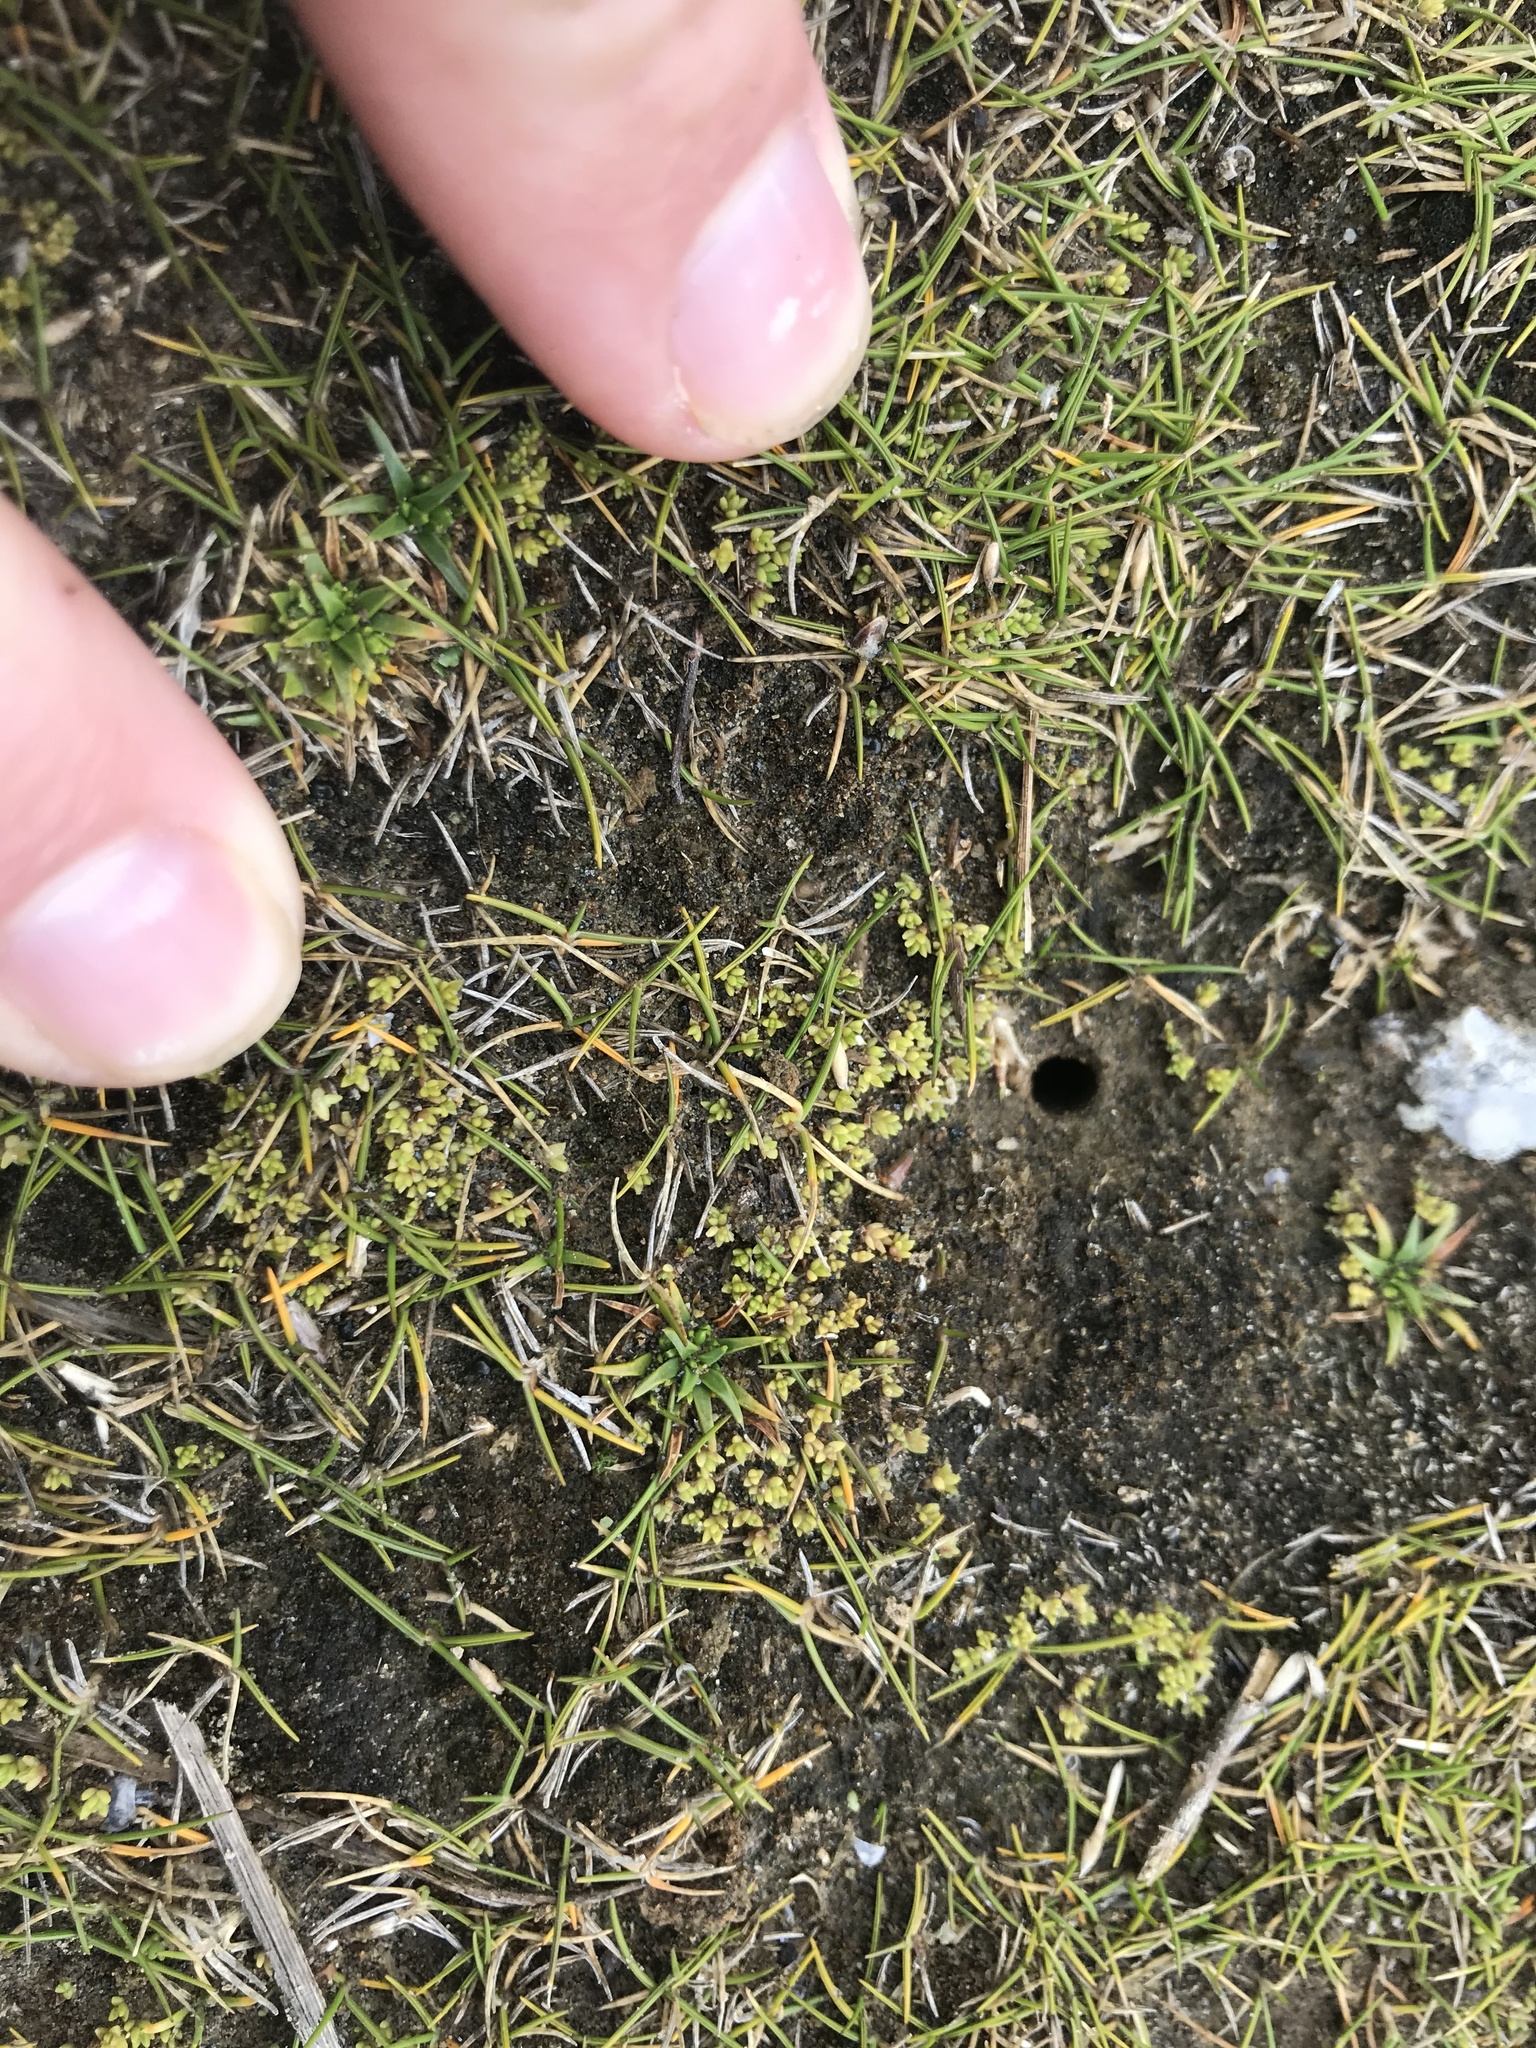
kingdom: Plantae
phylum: Tracheophyta
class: Magnoliopsida
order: Saxifragales
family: Crassulaceae
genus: Crassula
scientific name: Crassula manaia
